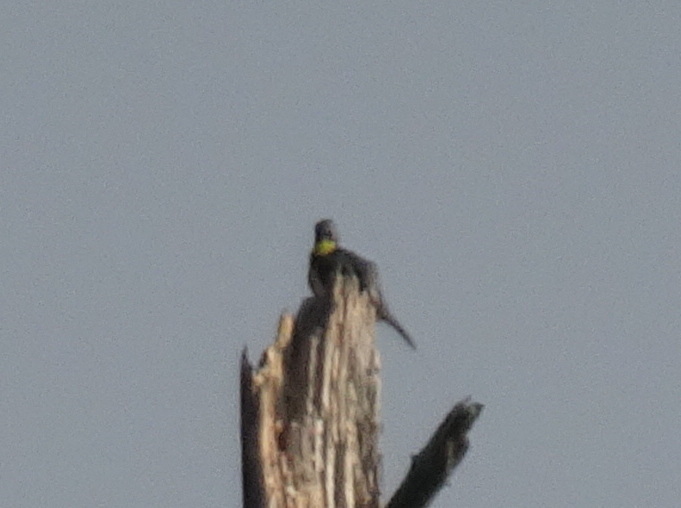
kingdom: Animalia
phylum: Chordata
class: Aves
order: Passeriformes
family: Parulidae
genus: Setophaga
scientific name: Setophaga kirtlandii
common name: Kirtland's warbler
